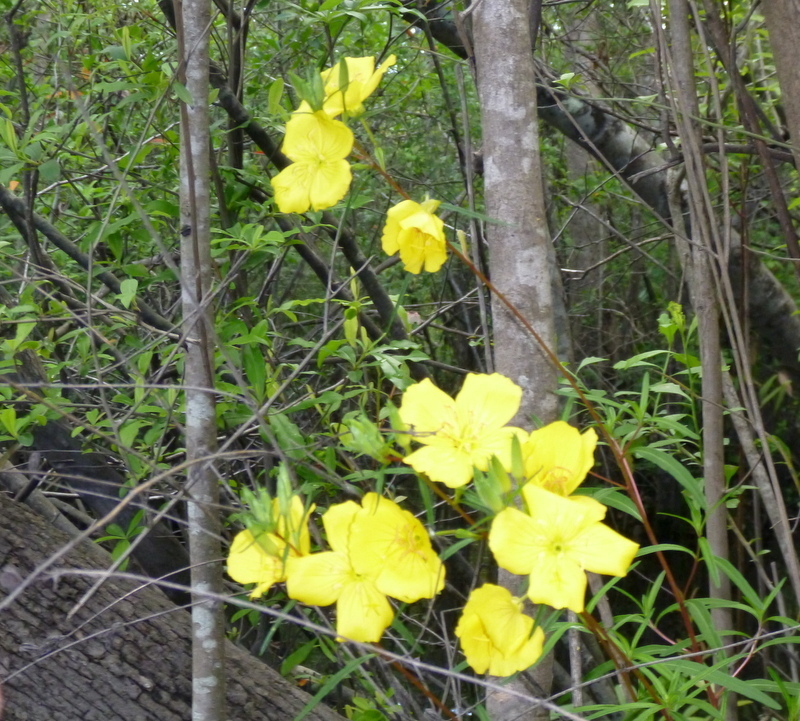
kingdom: Plantae
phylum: Tracheophyta
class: Magnoliopsida
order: Myrtales
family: Onagraceae
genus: Oenothera
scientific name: Oenothera fruticosa
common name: Southern sundrops
